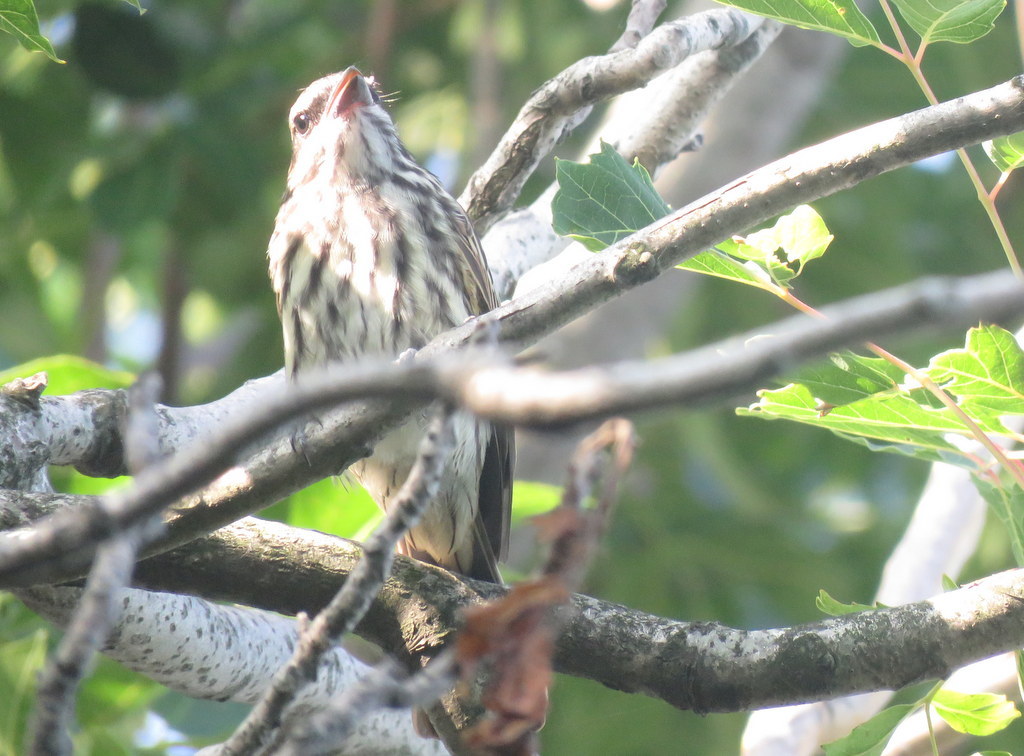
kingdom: Animalia
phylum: Chordata
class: Aves
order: Passeriformes
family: Tyrannidae
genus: Myiodynastes
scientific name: Myiodynastes maculatus
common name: Streaked flycatcher
